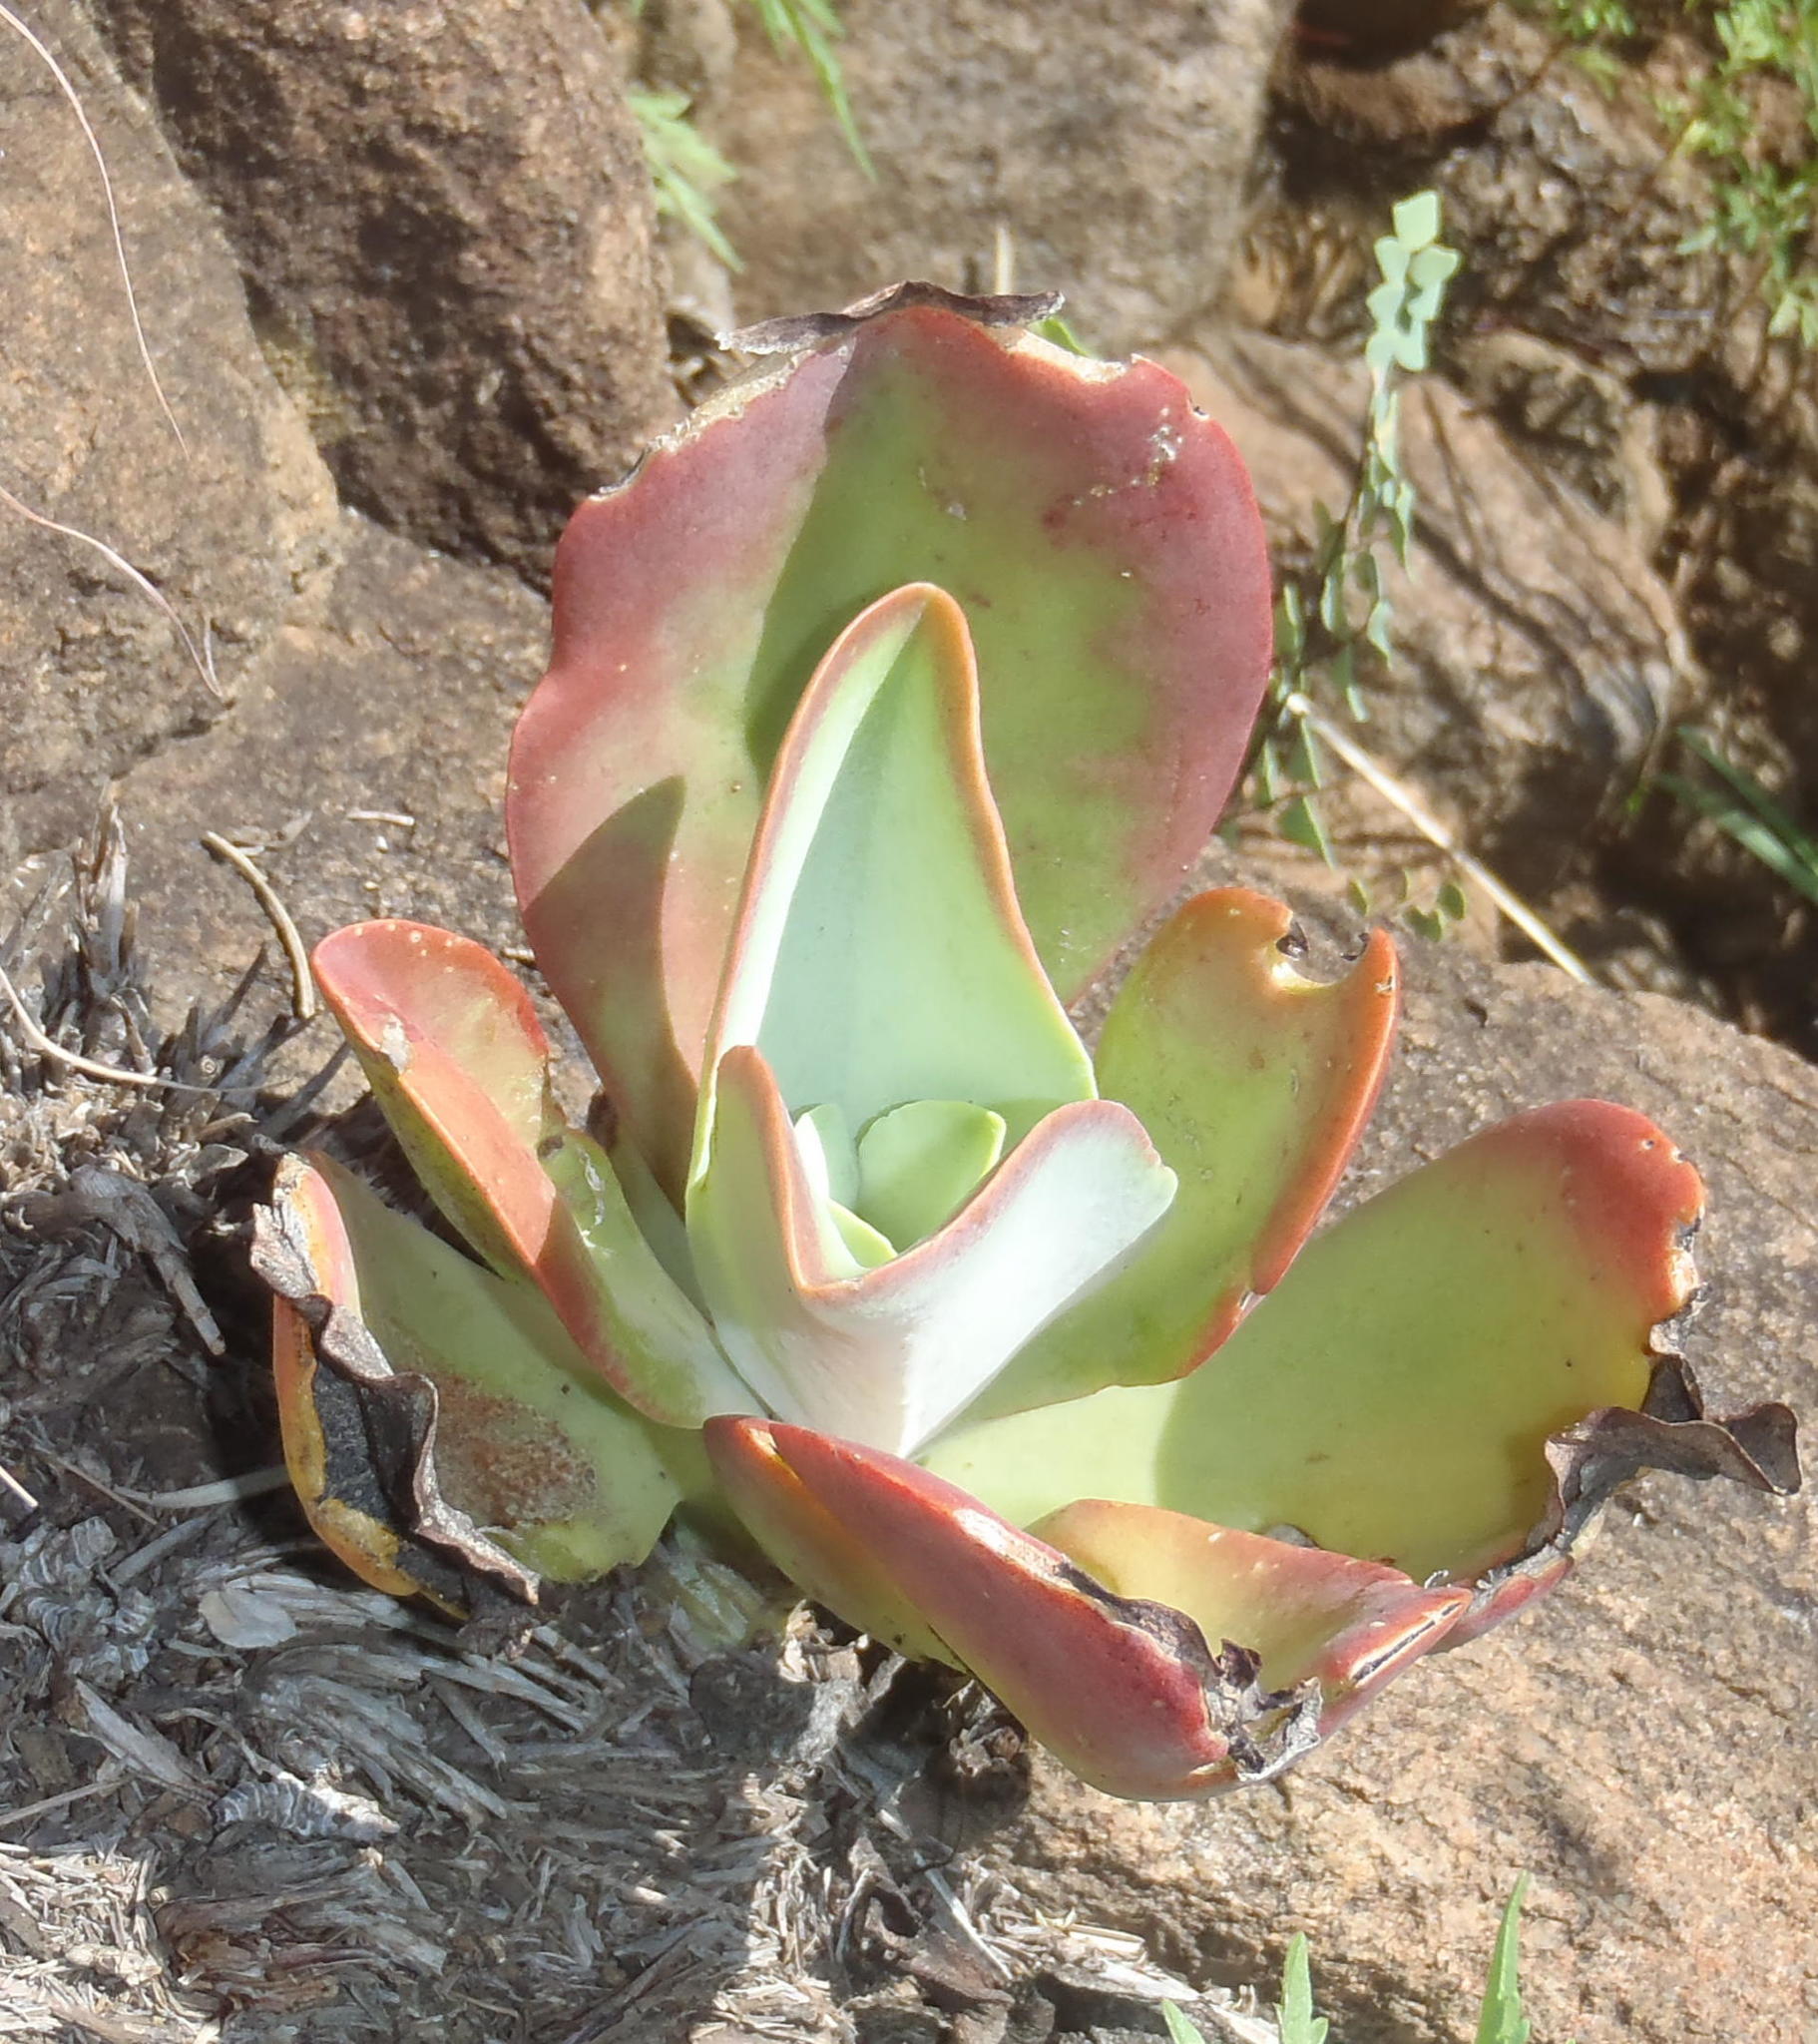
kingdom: Plantae
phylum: Tracheophyta
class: Magnoliopsida
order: Saxifragales
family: Crassulaceae
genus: Kalanchoe
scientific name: Kalanchoe paniculata
